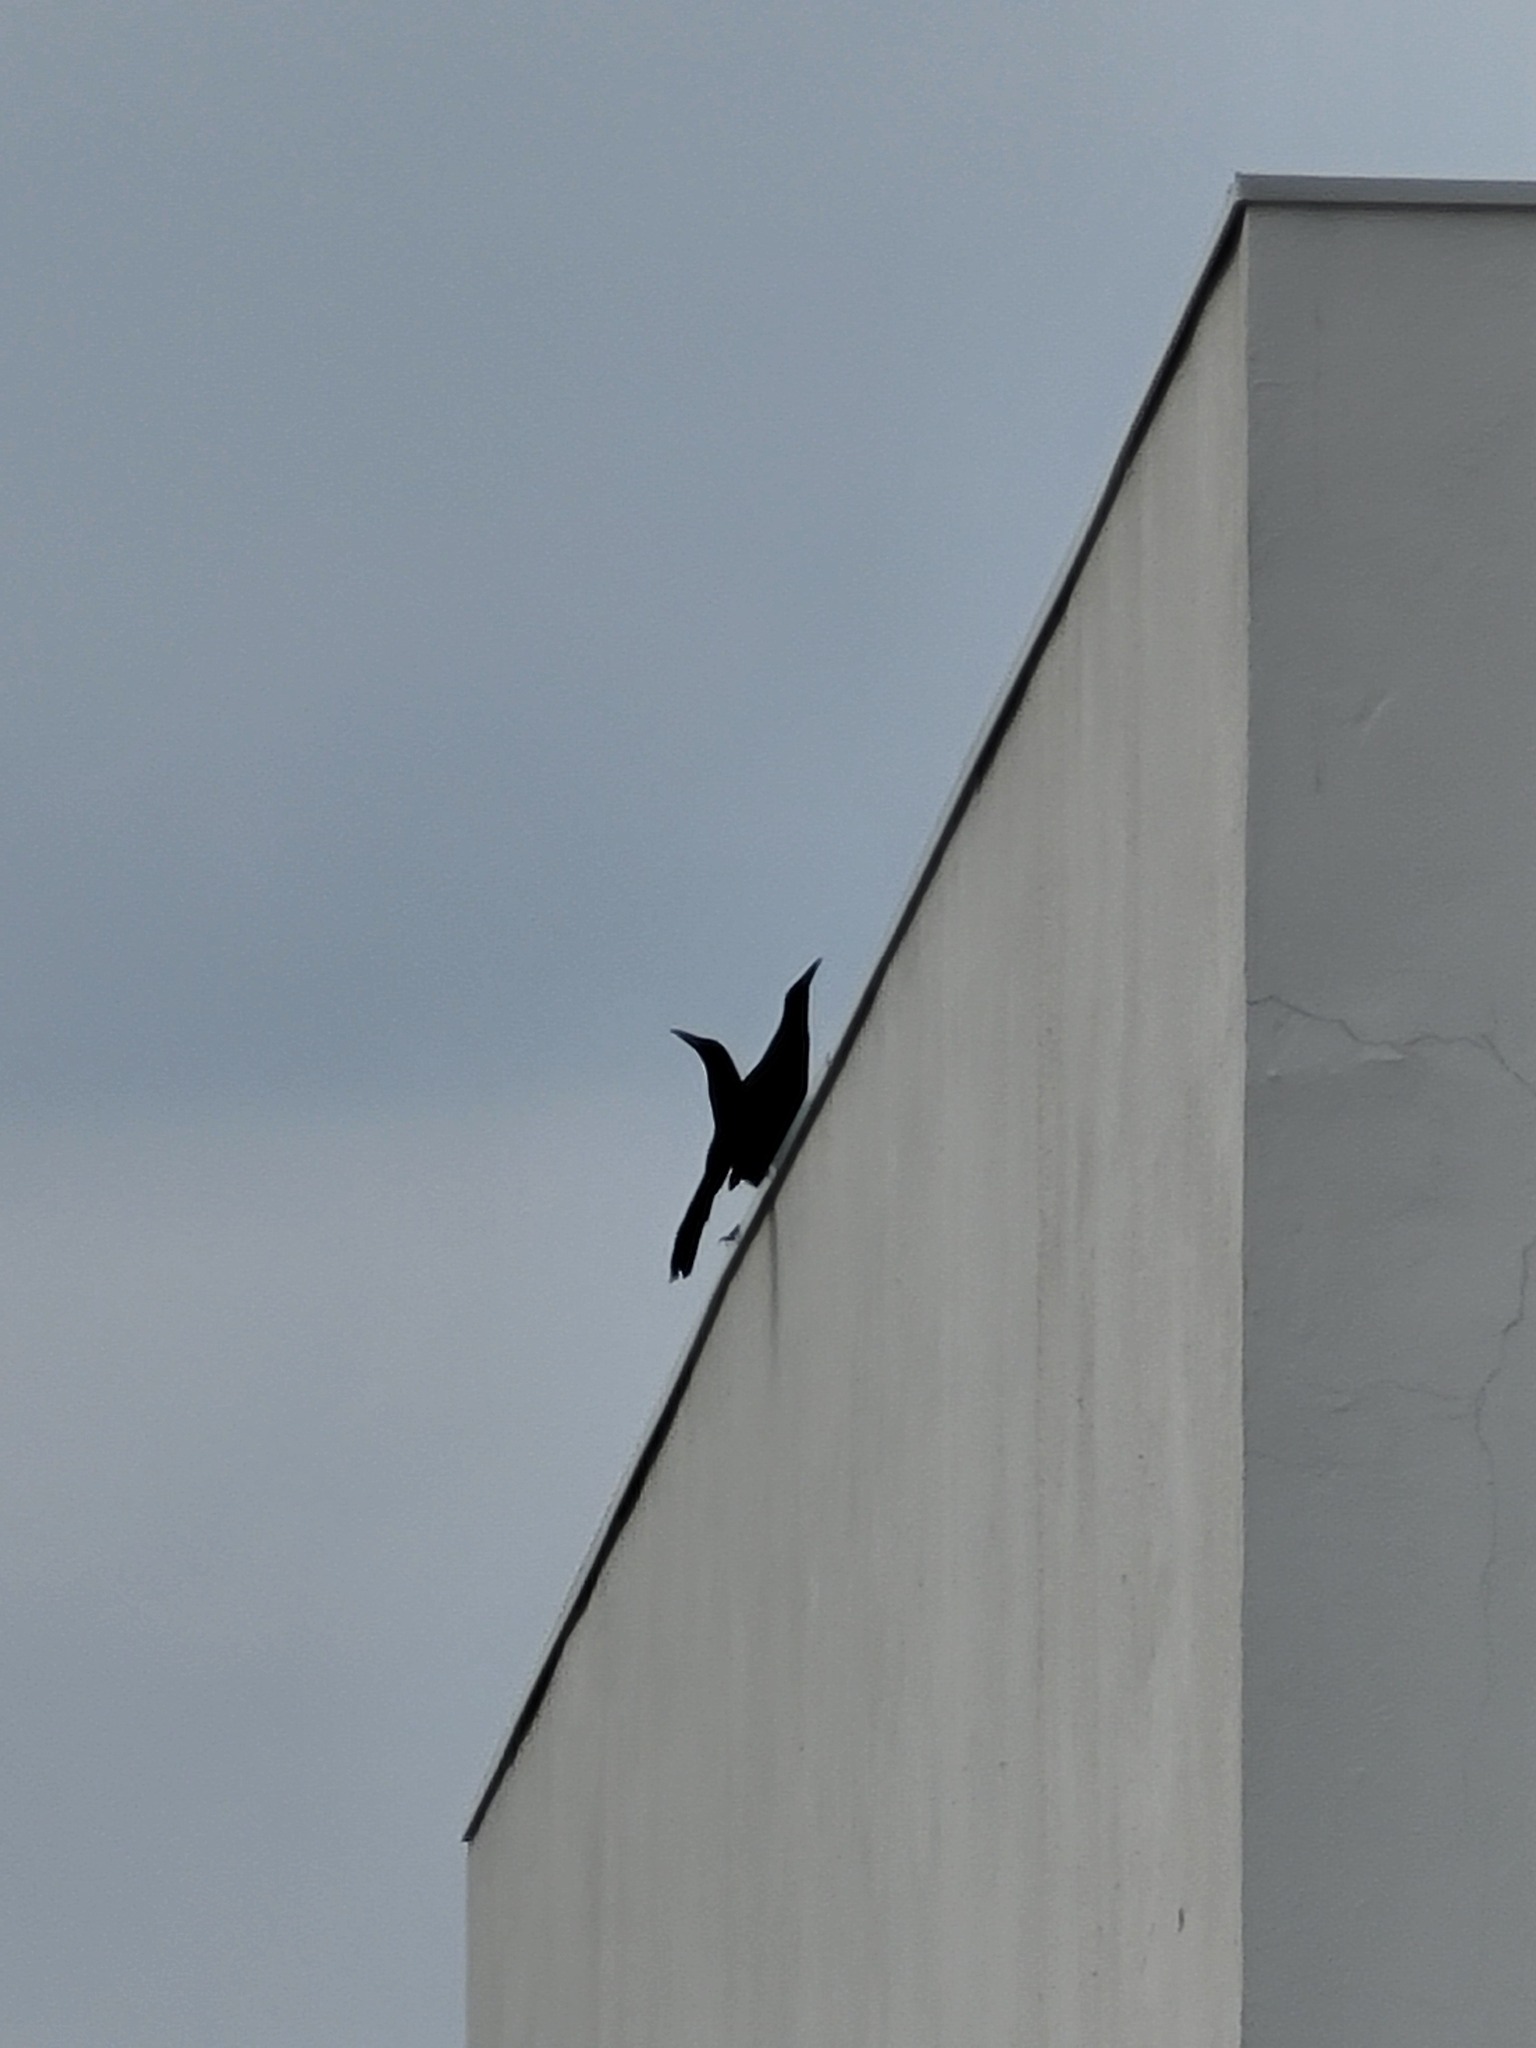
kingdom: Animalia
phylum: Chordata
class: Aves
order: Passeriformes
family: Icteridae
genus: Quiscalus
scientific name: Quiscalus mexicanus
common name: Great-tailed grackle
